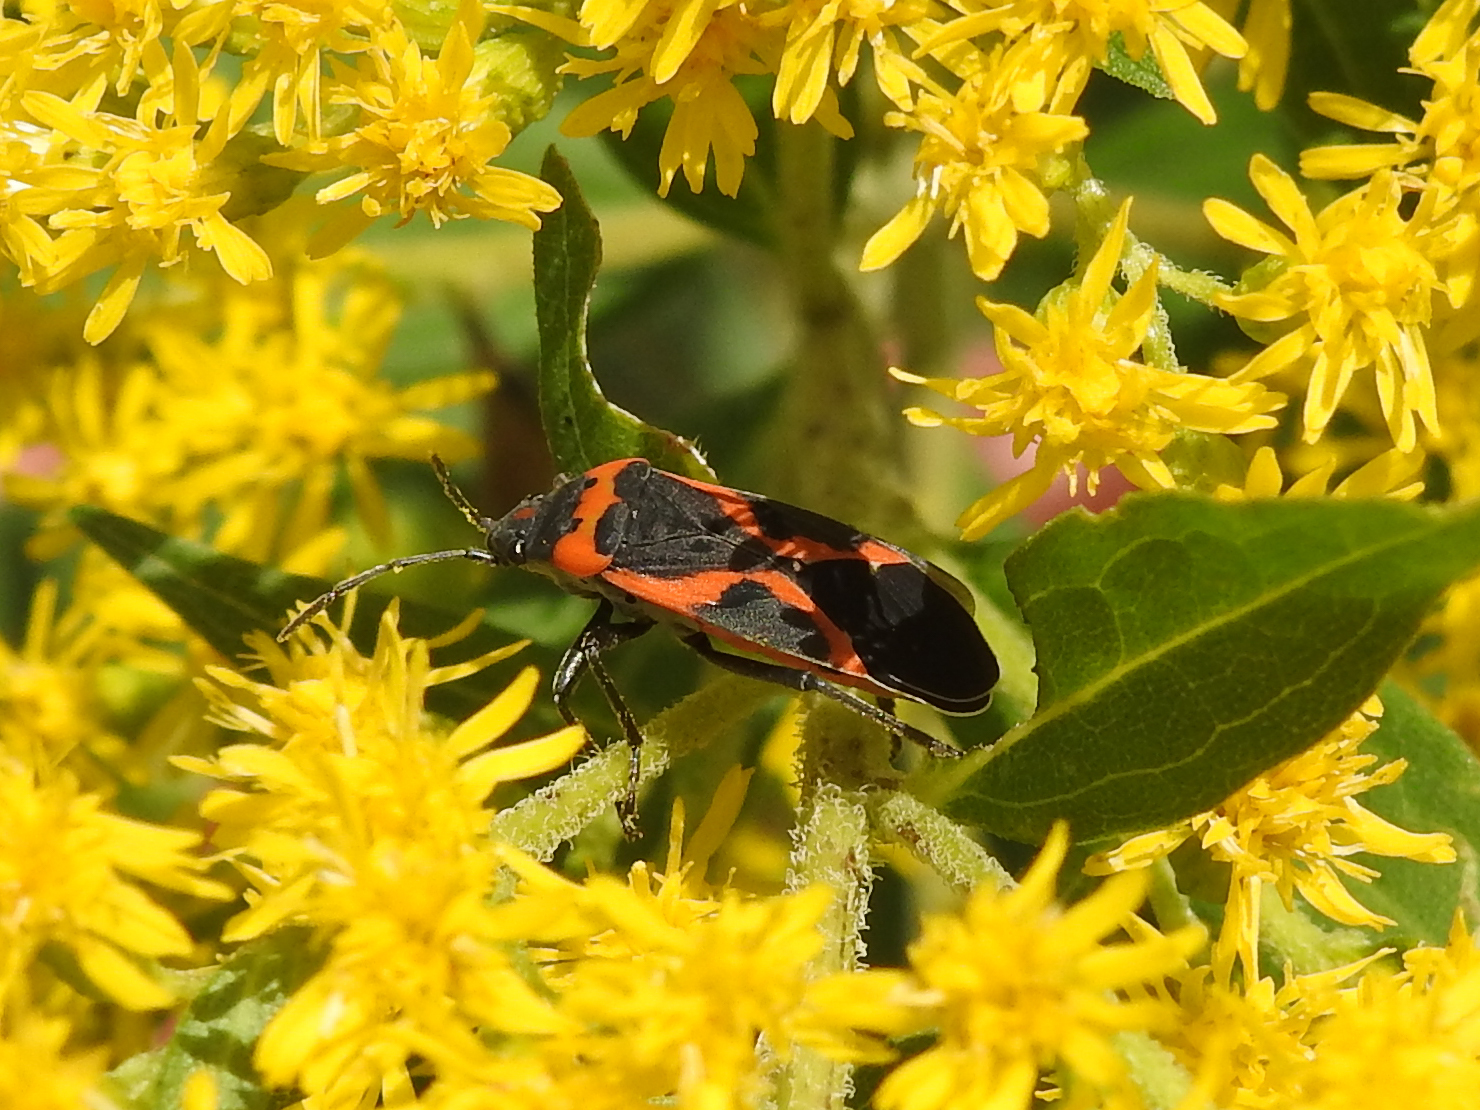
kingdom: Animalia
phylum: Arthropoda
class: Insecta
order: Hemiptera
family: Lygaeidae
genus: Lygaeus
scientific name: Lygaeus kalmii
